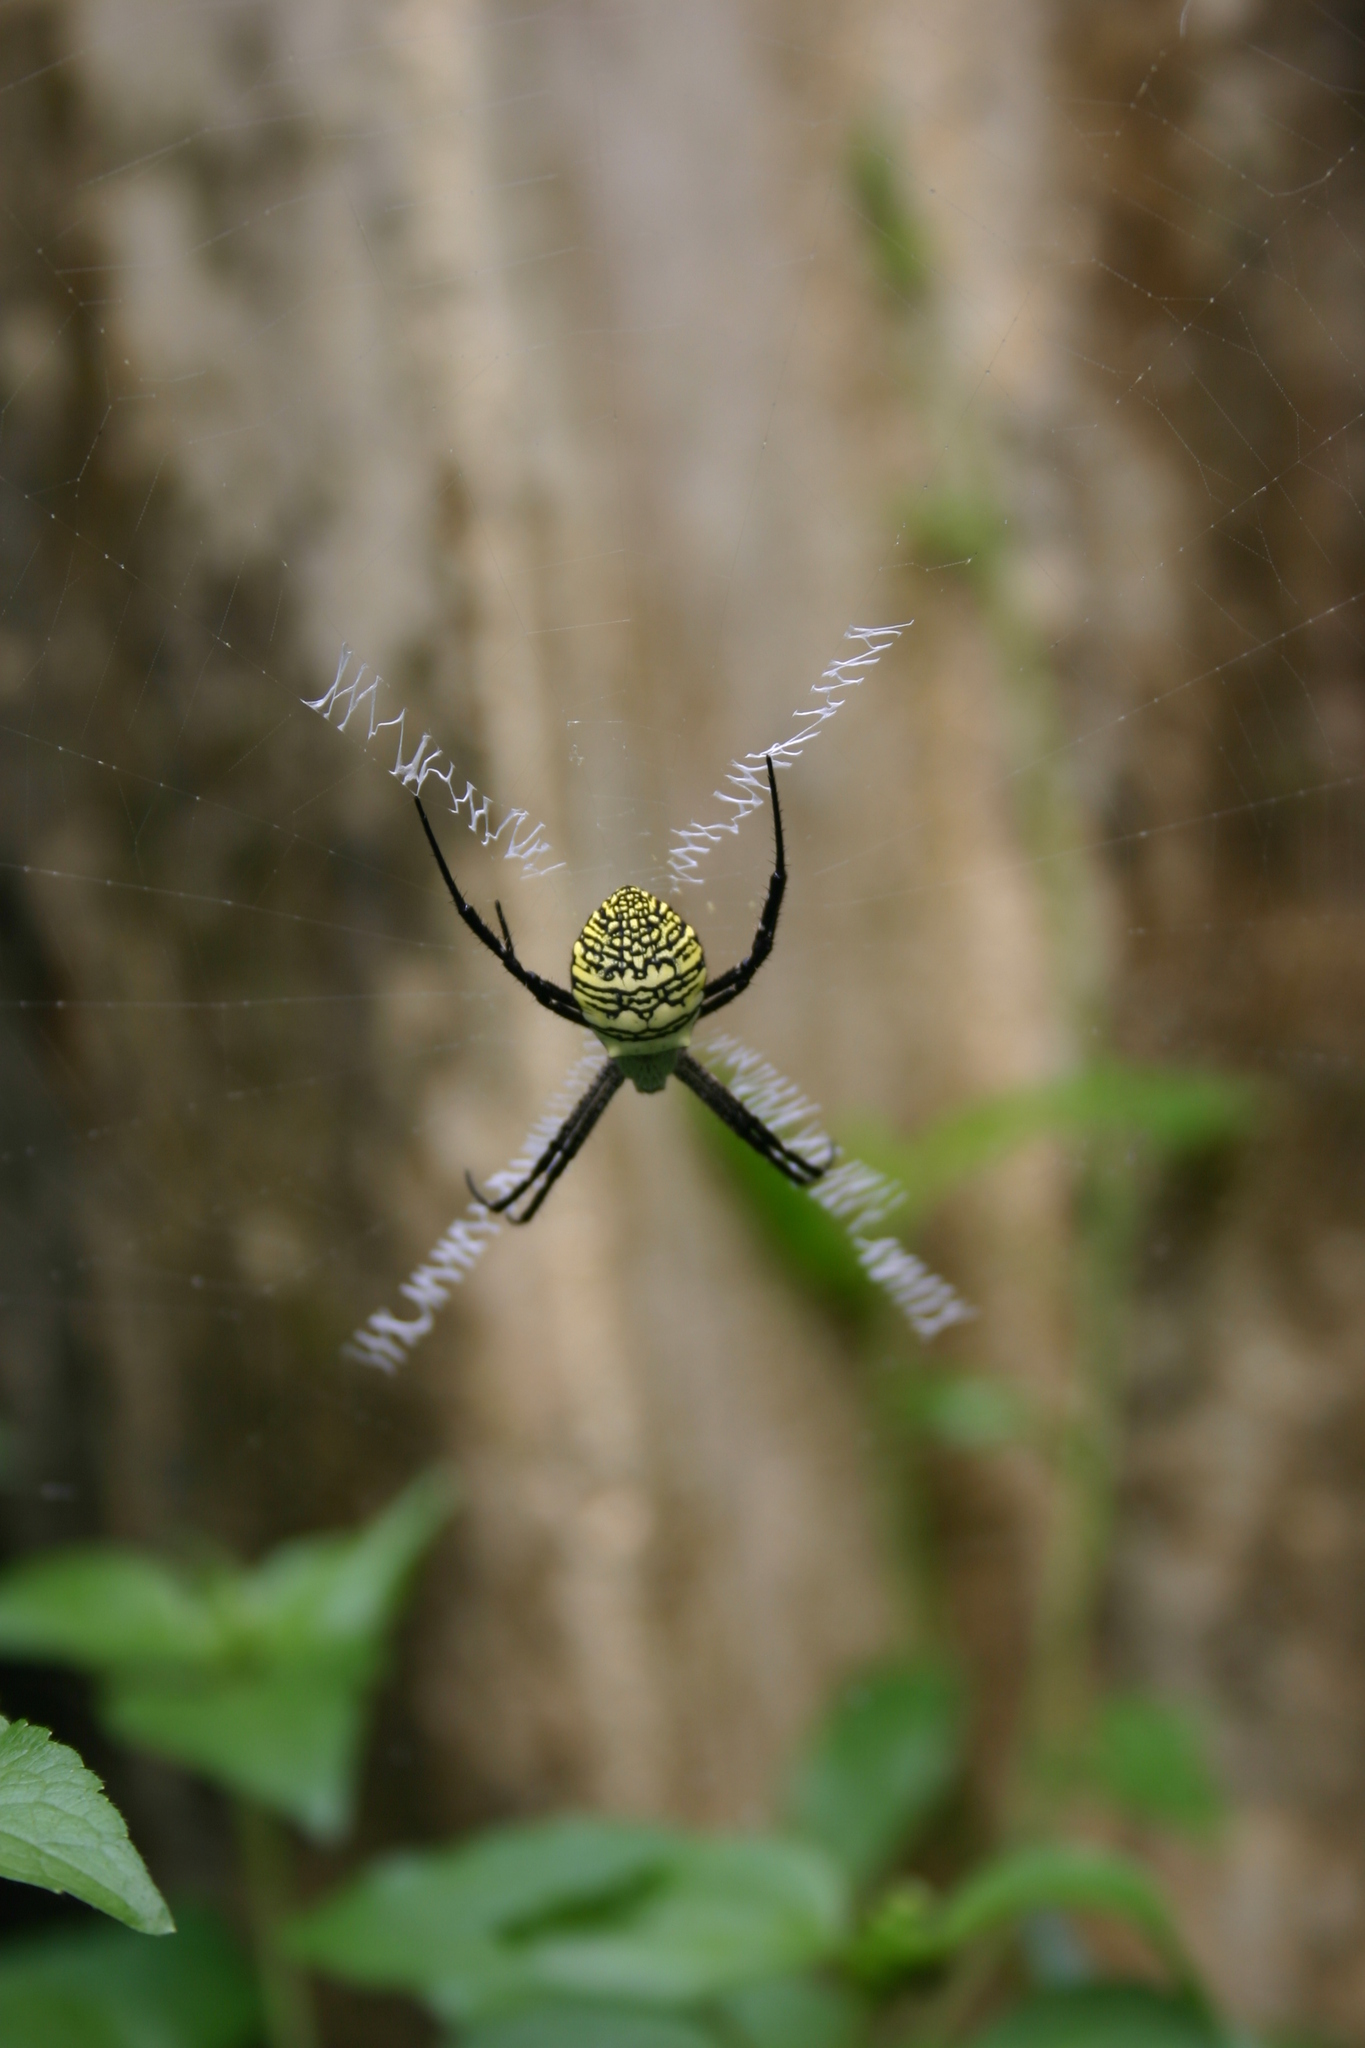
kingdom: Animalia
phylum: Arthropoda
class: Arachnida
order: Araneae
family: Araneidae
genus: Argiope
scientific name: Argiope aemula
